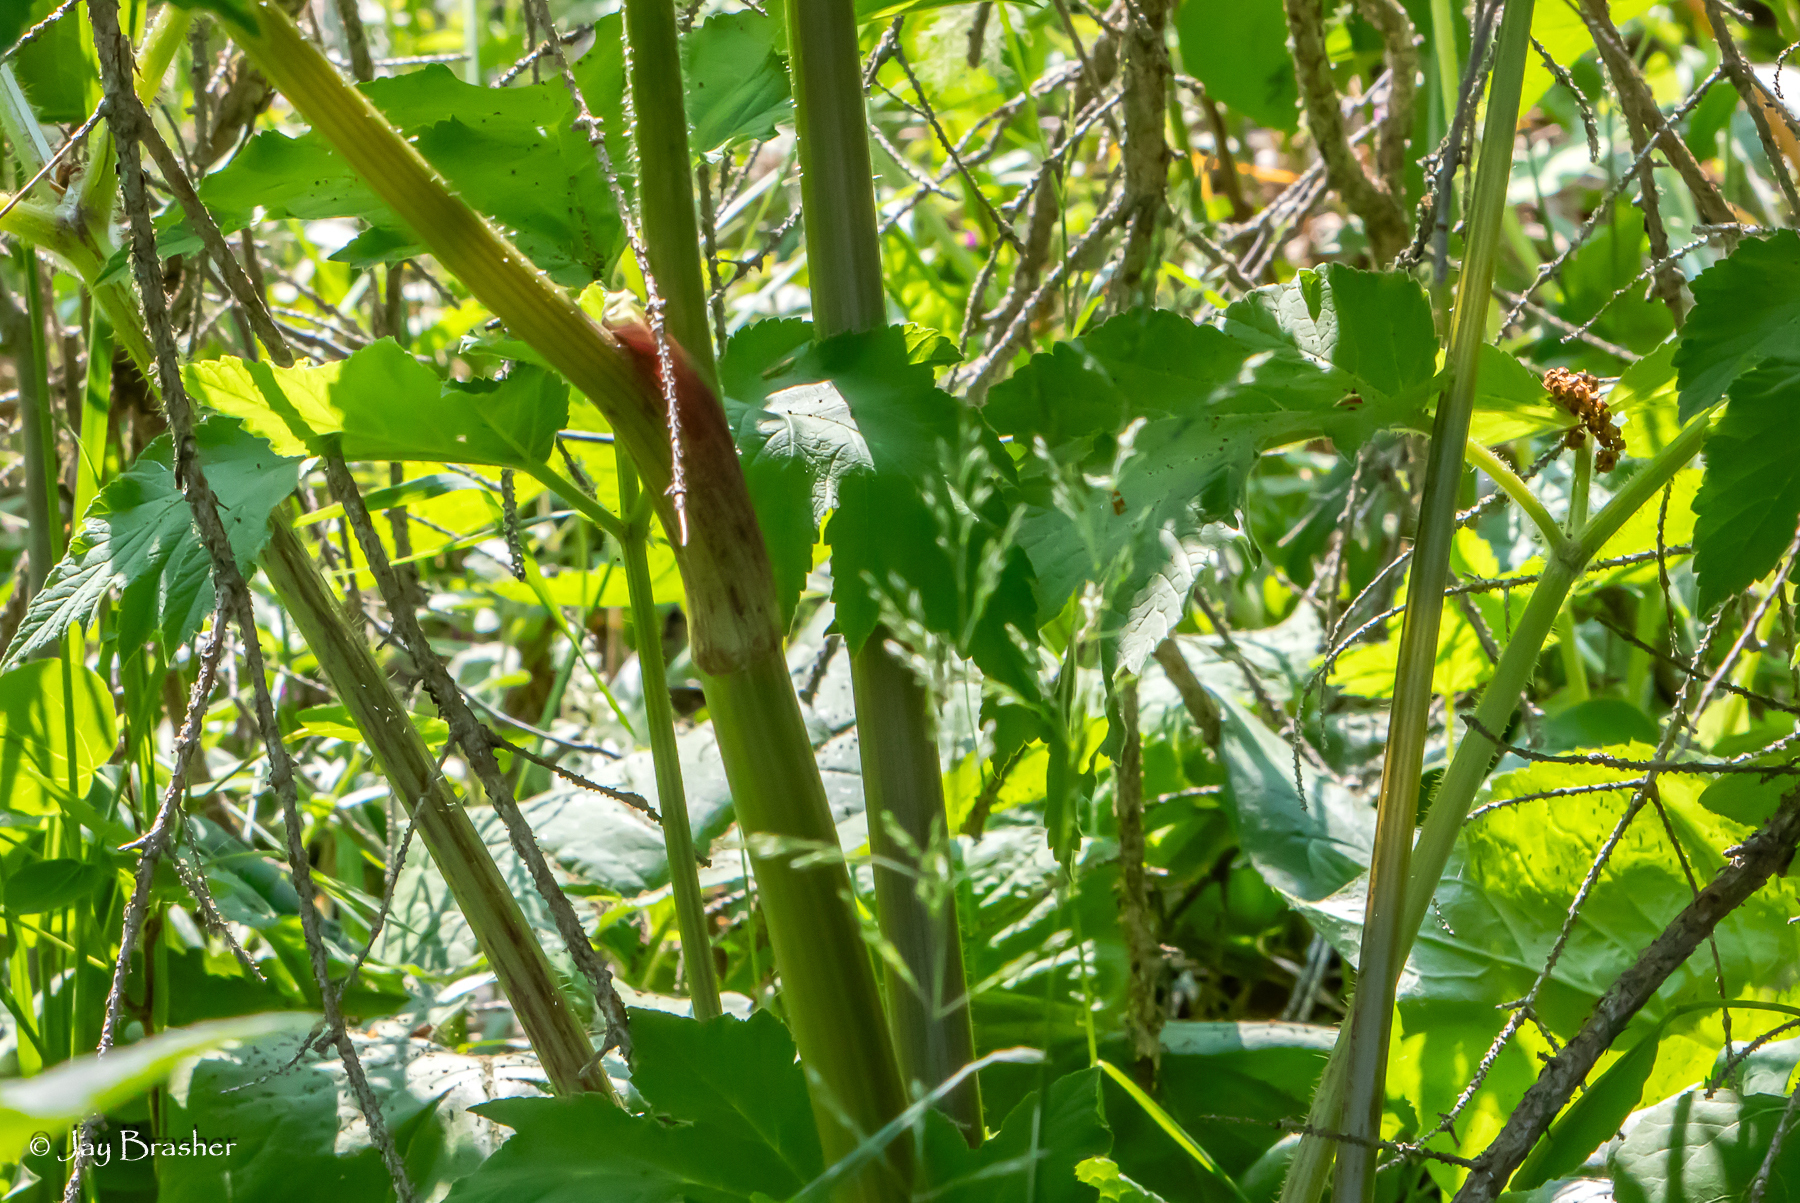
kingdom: Plantae
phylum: Tracheophyta
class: Magnoliopsida
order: Apiales
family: Apiaceae
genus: Heracleum
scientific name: Heracleum maximum
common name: American cow parsnip
